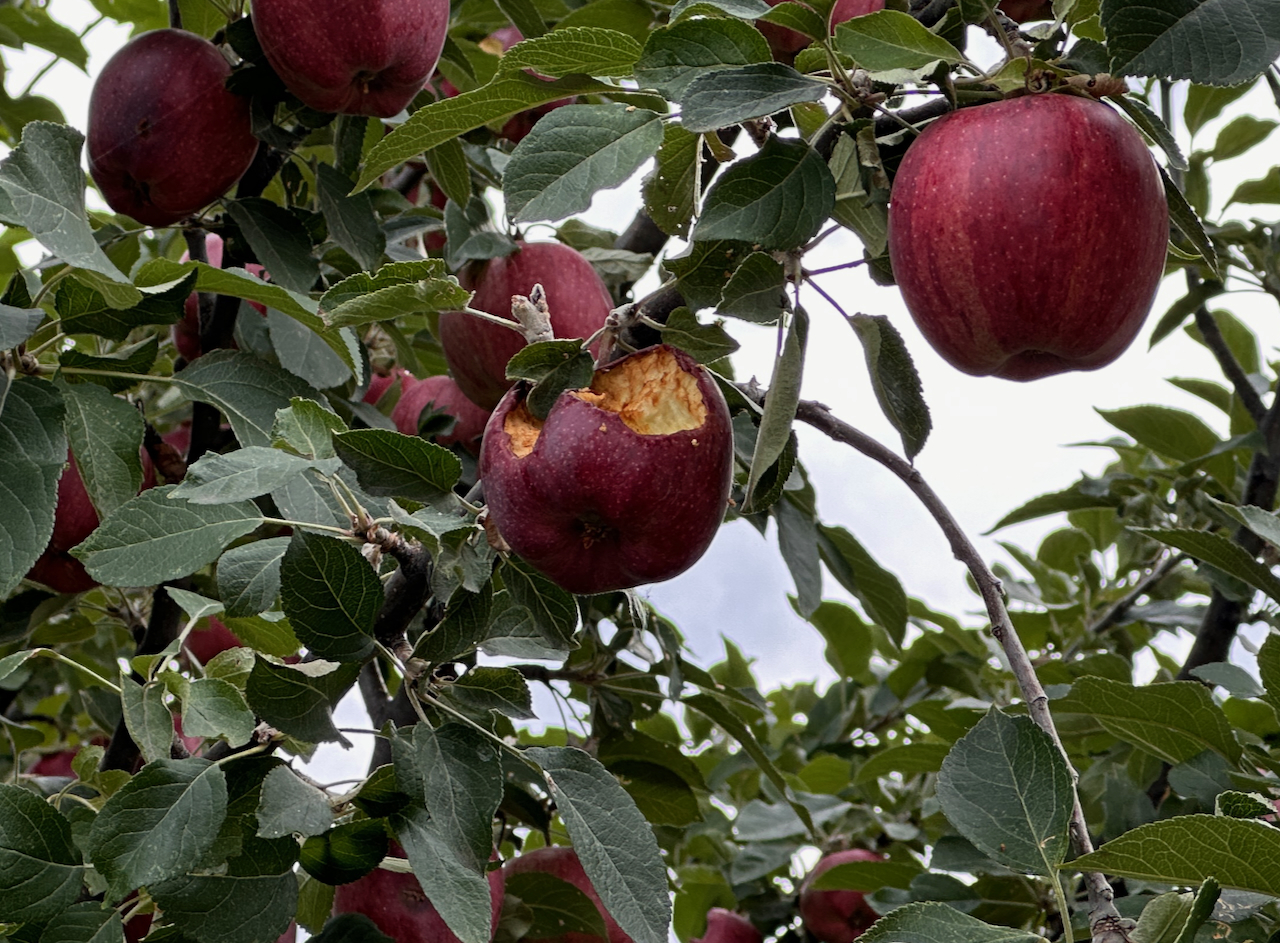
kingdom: Animalia
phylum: Chordata
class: Aves
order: Passeriformes
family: Fringillidae
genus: Haemorhous
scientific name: Haemorhous mexicanus
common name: House finch
